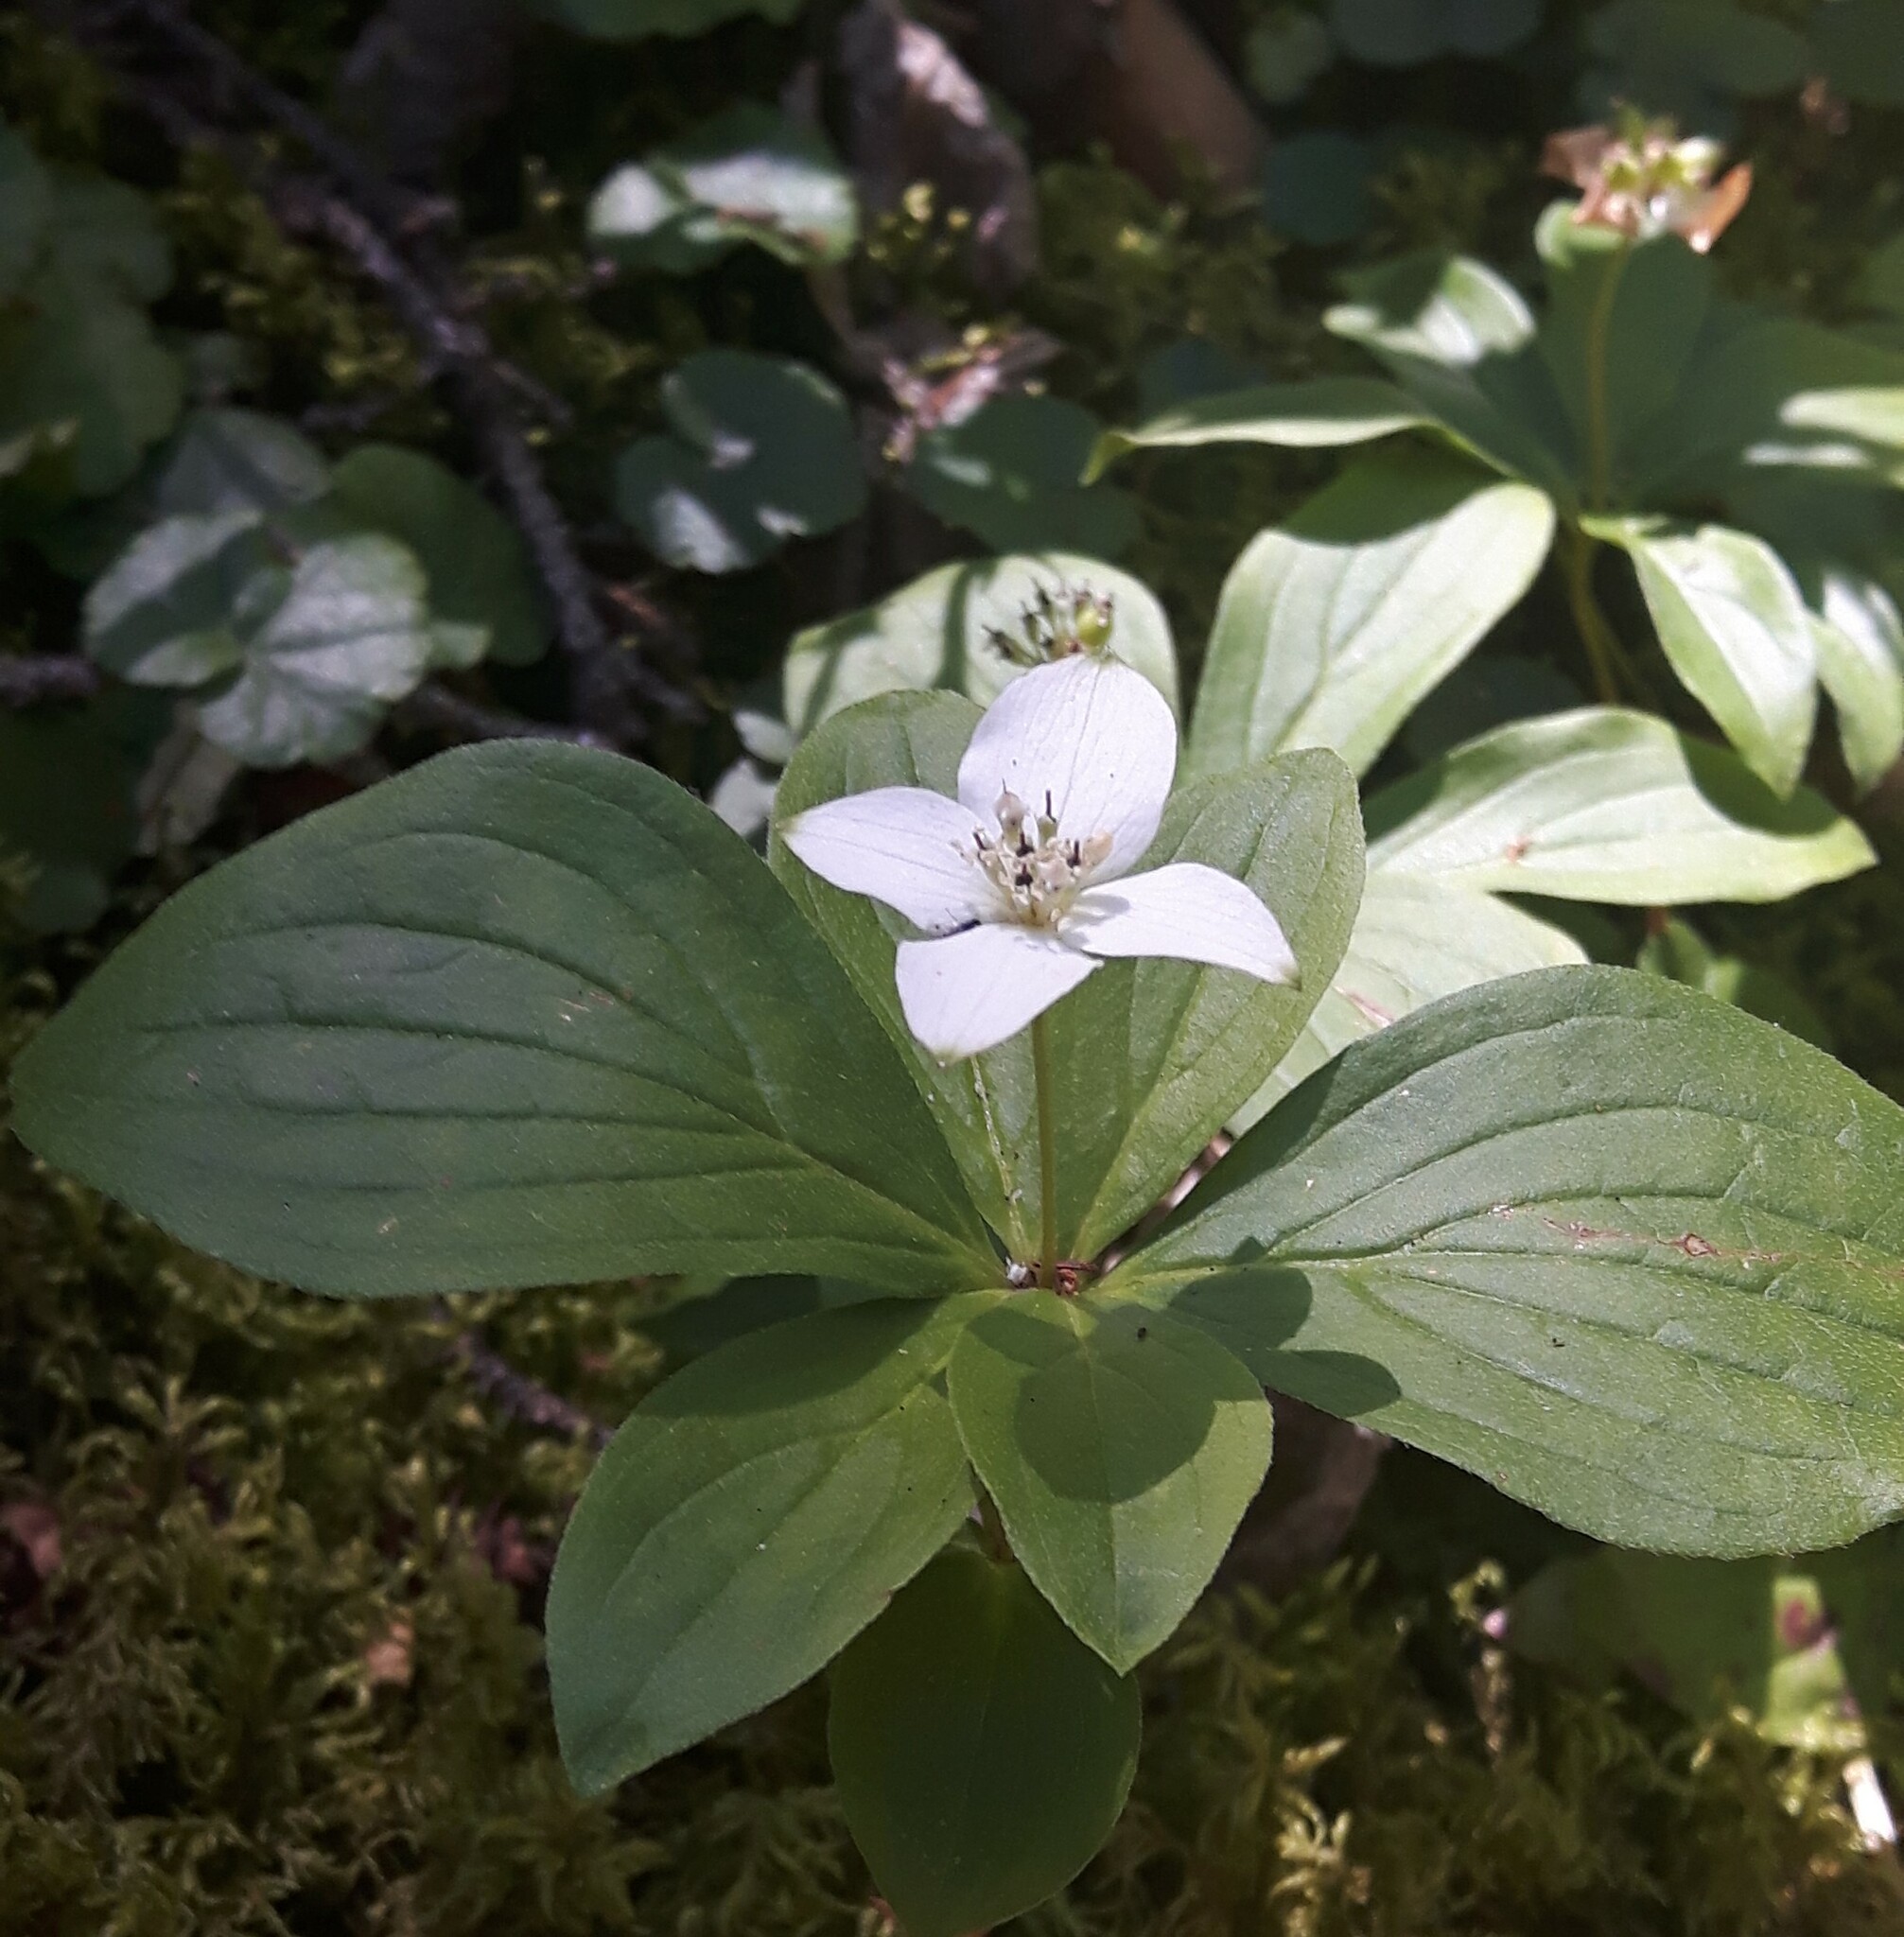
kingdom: Plantae
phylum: Tracheophyta
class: Magnoliopsida
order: Cornales
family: Cornaceae
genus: Cornus
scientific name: Cornus canadensis
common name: Creeping dogwood
